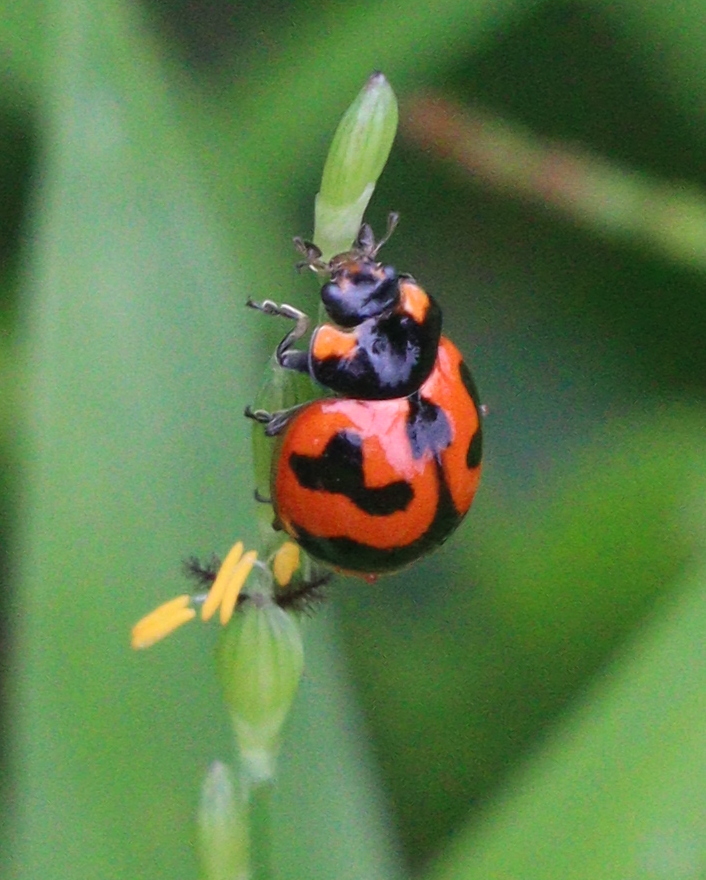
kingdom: Animalia
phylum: Arthropoda
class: Insecta
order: Coleoptera
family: Coccinellidae
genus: Coccinella
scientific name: Coccinella transversalis
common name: Transverse lady beetle
